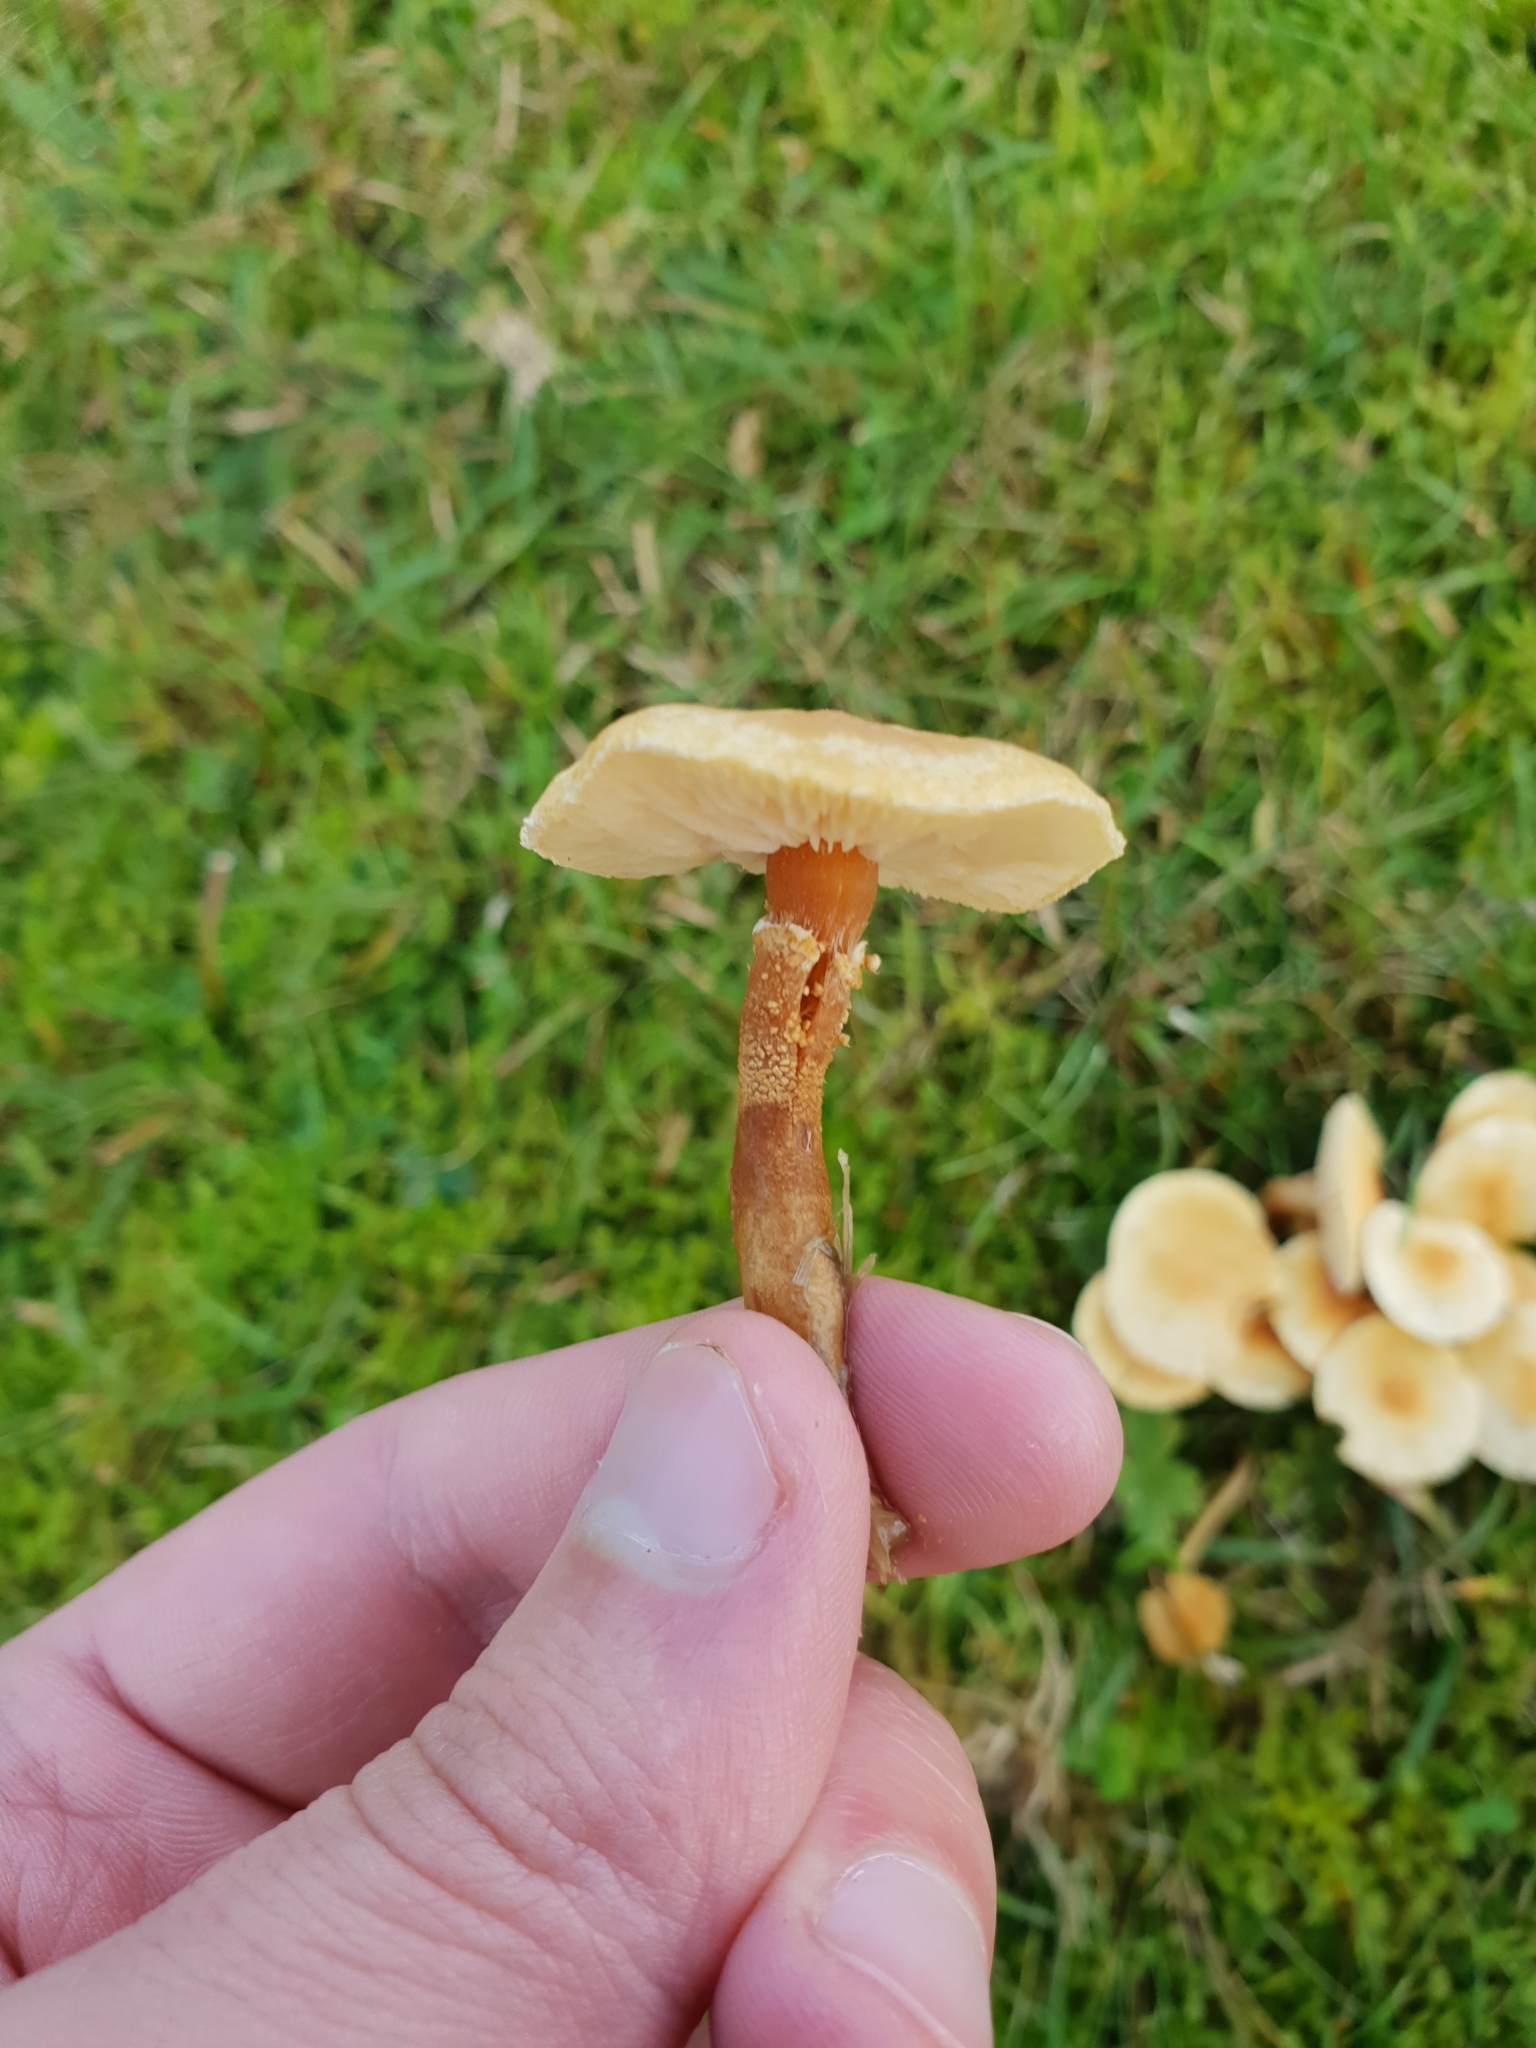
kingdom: Fungi
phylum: Basidiomycota
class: Agaricomycetes
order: Agaricales
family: Tricholomataceae
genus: Cystoderma
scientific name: Cystoderma amianthinum
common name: Earthy powdercap
